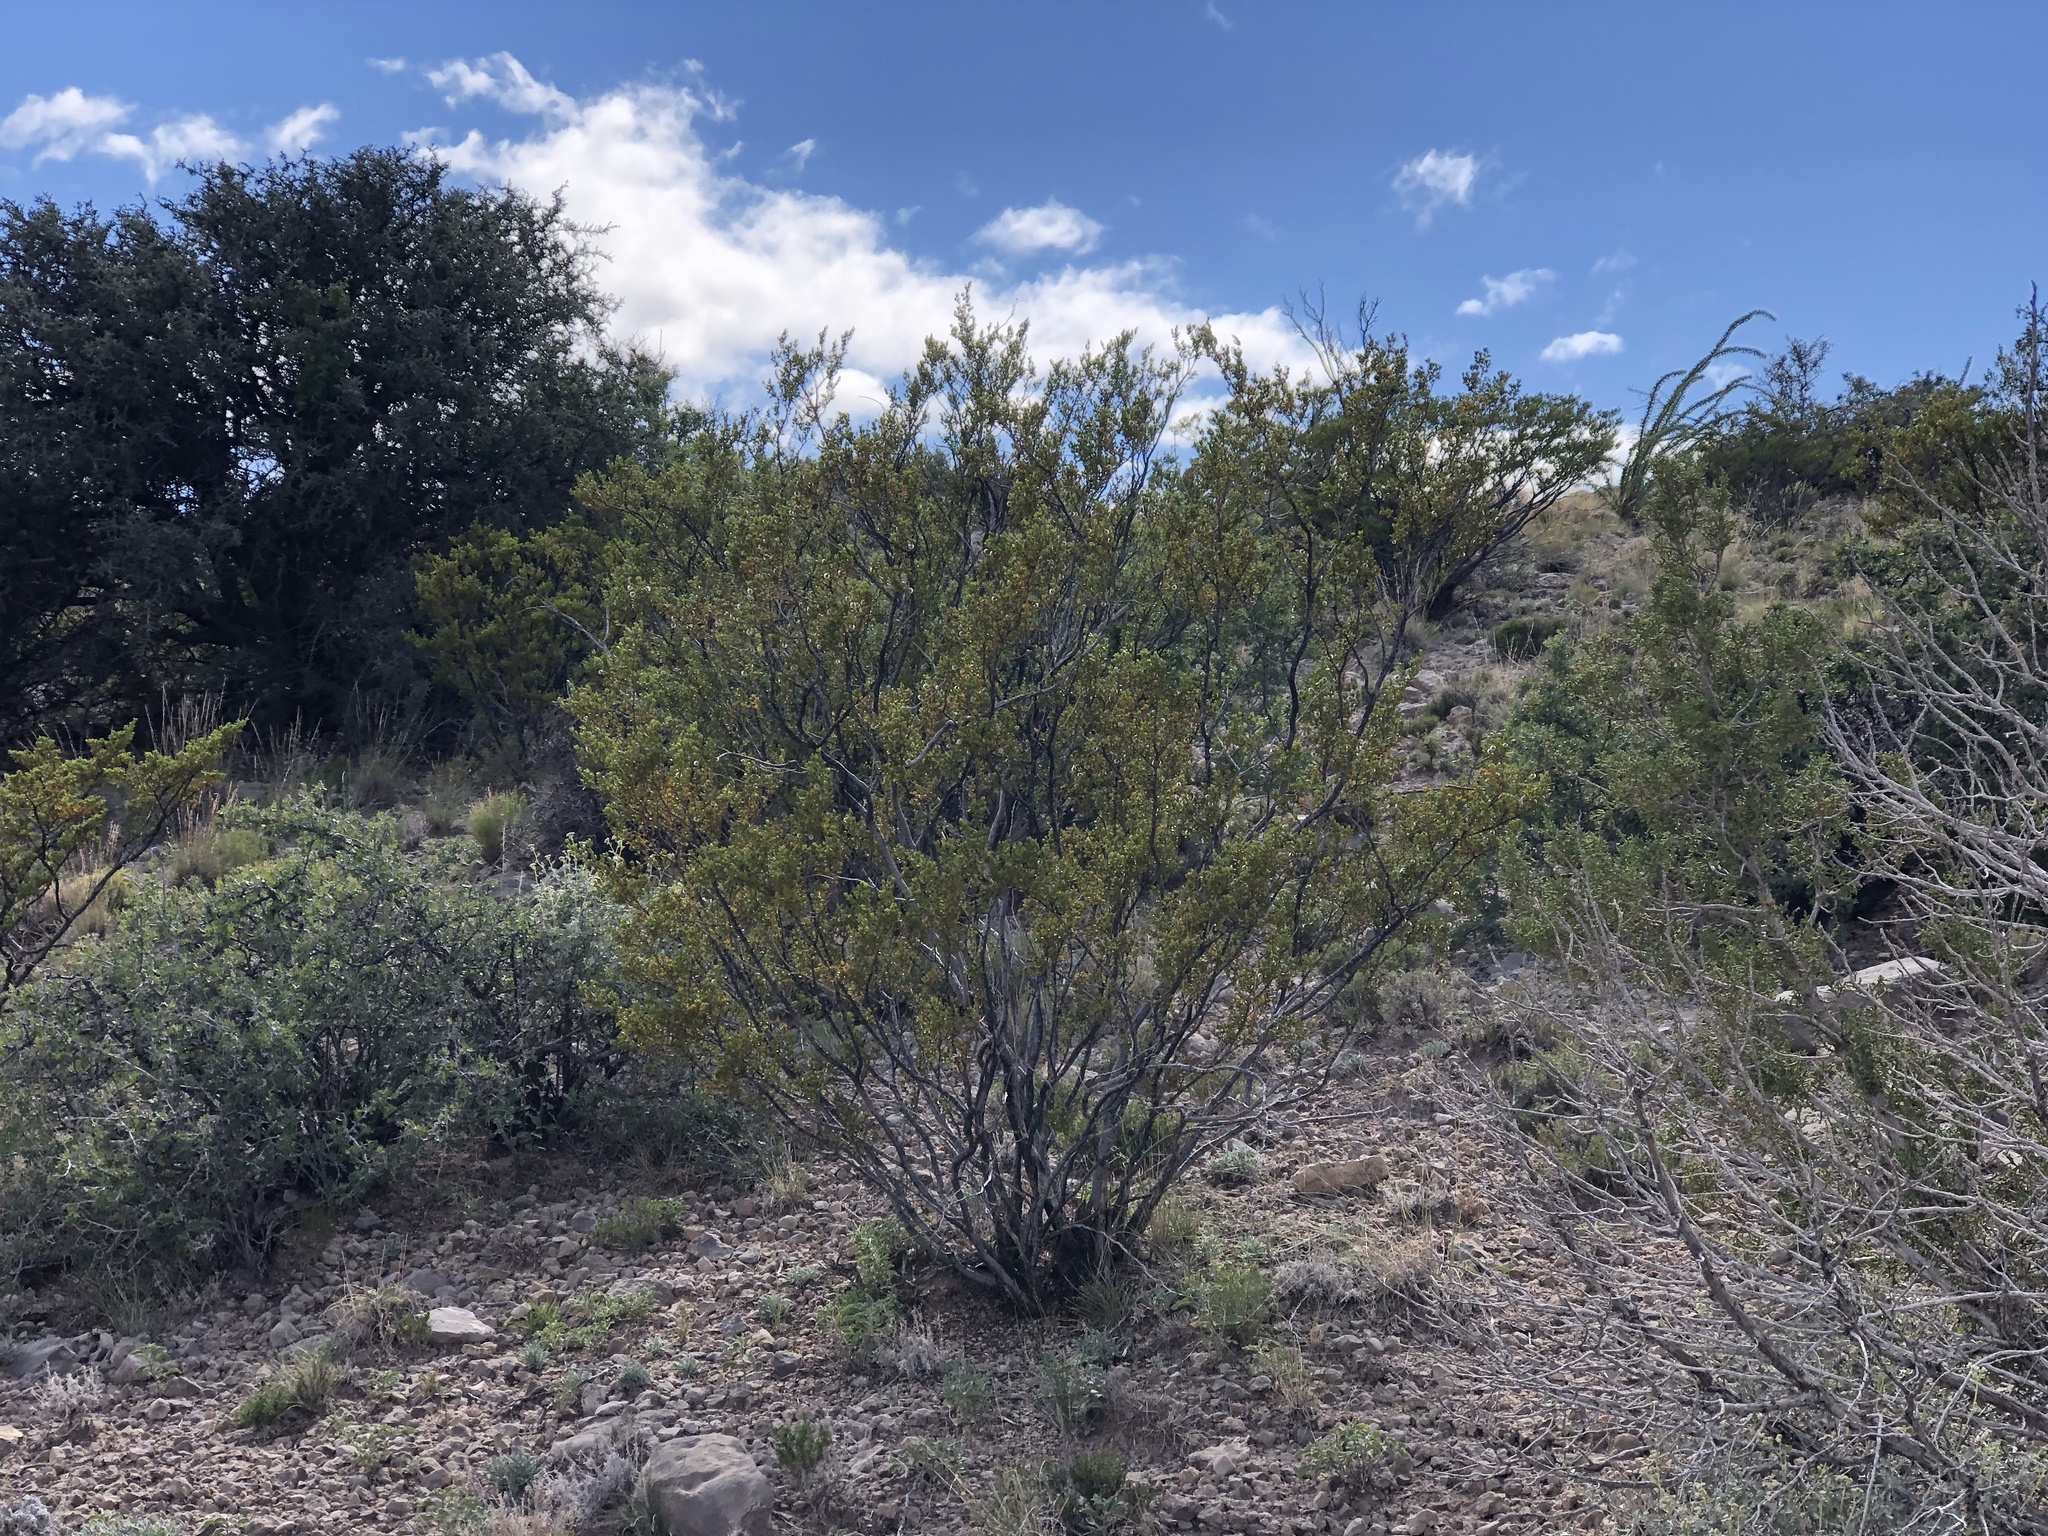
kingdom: Plantae
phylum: Tracheophyta
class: Magnoliopsida
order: Zygophyllales
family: Zygophyllaceae
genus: Larrea
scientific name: Larrea tridentata
